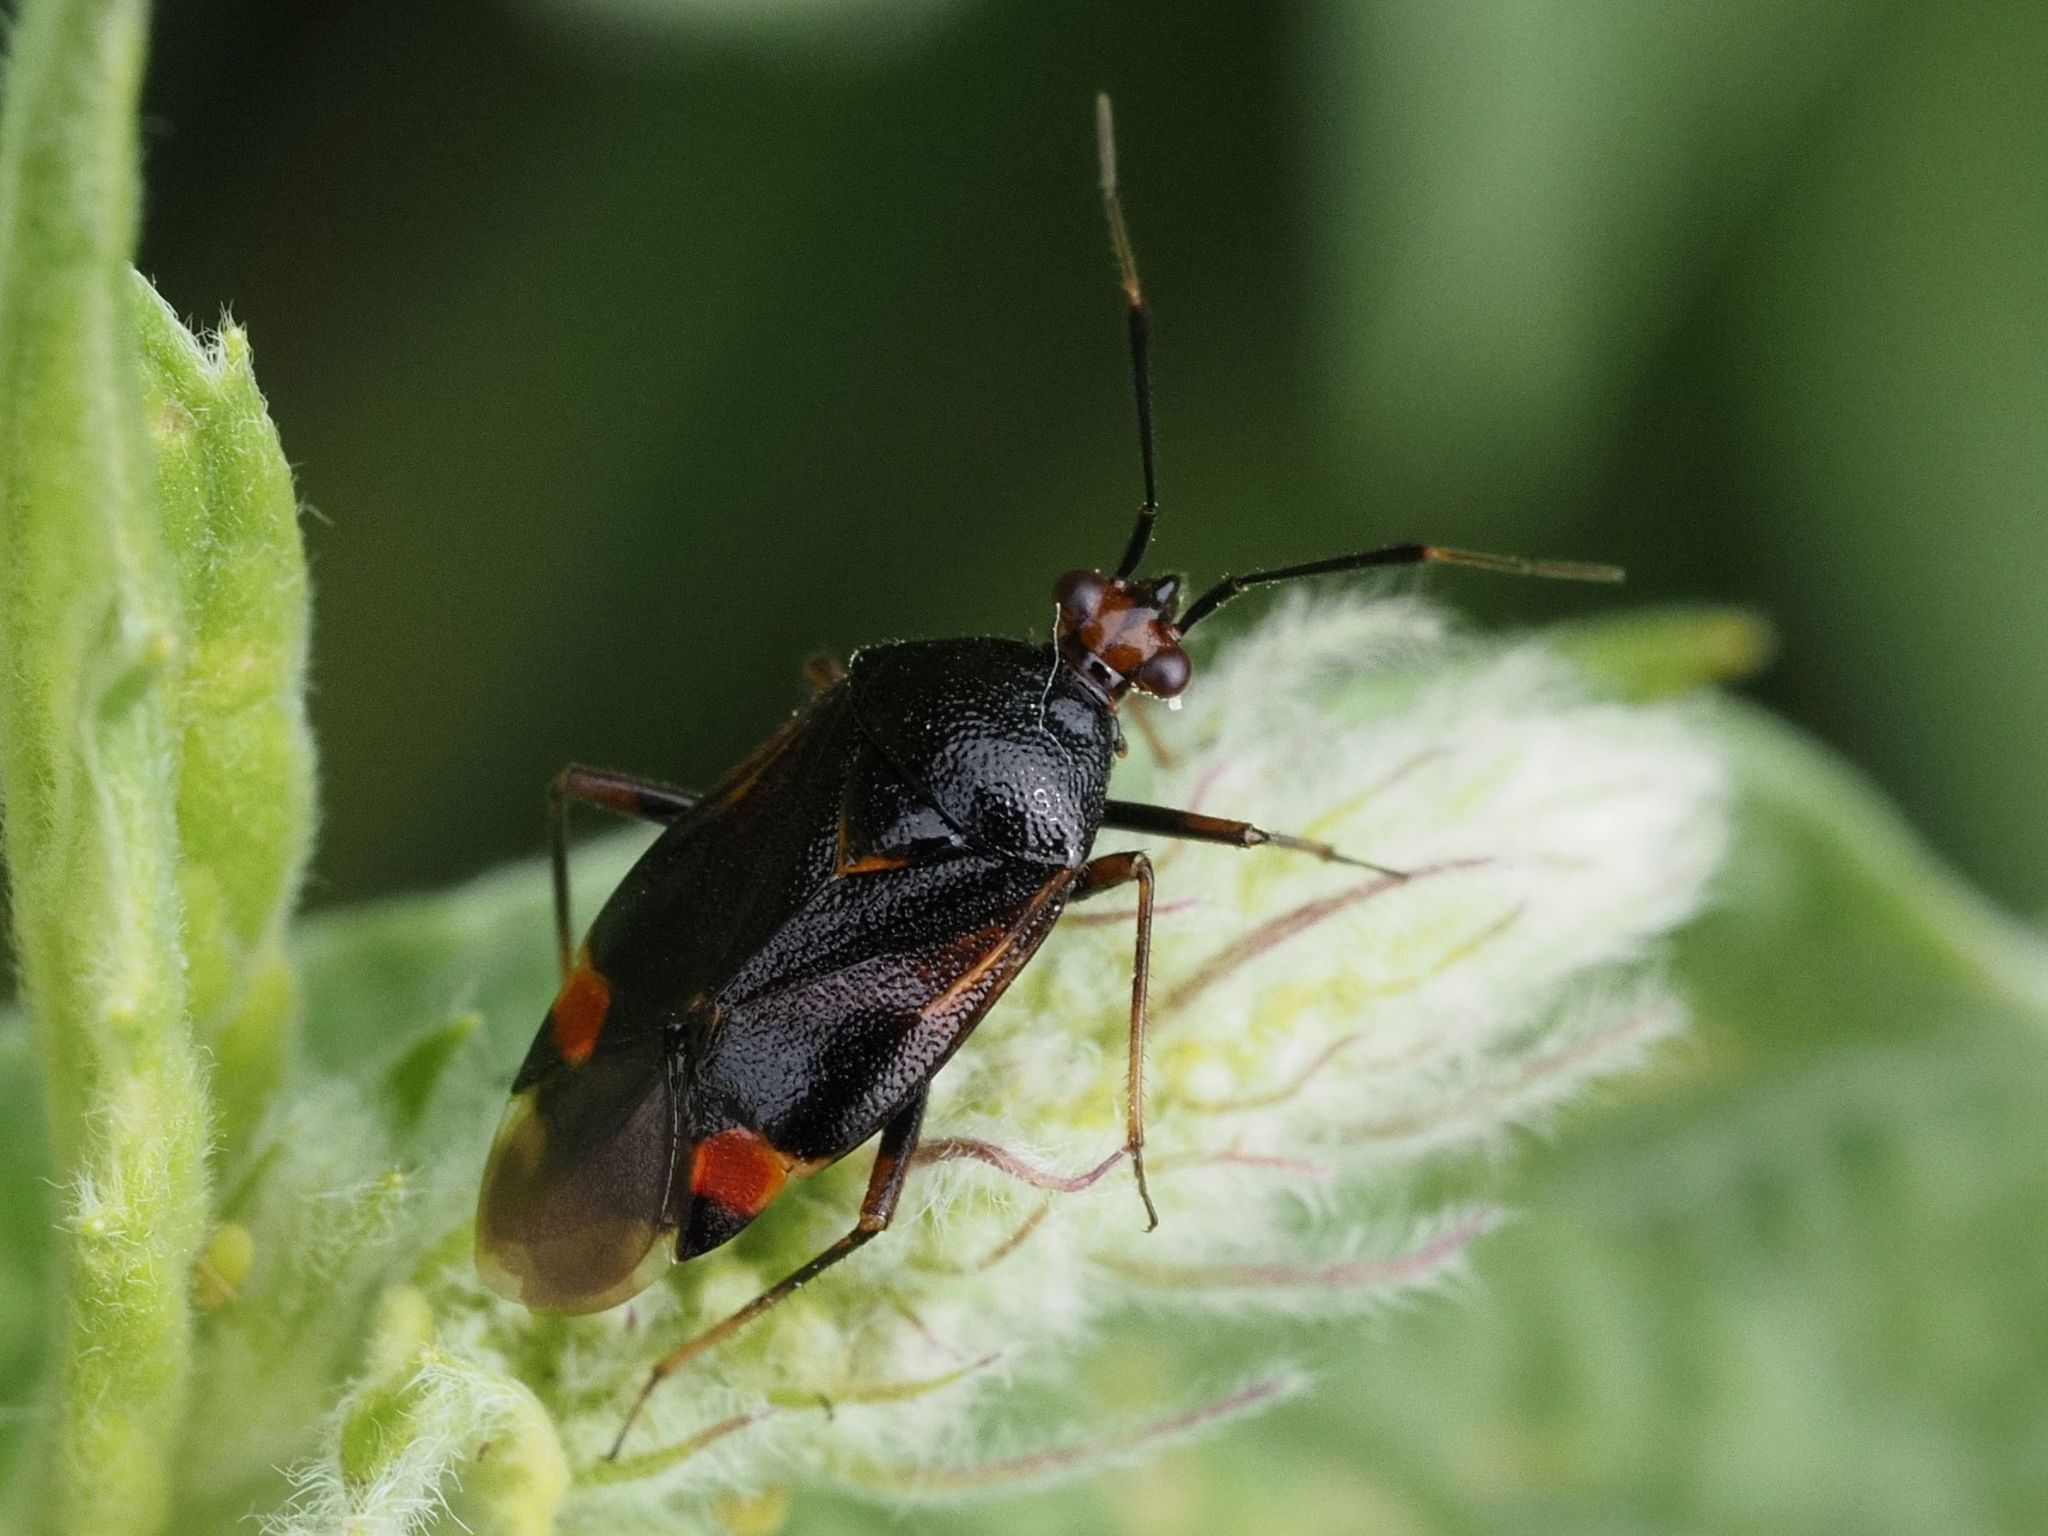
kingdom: Animalia
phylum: Arthropoda
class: Insecta
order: Hemiptera
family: Miridae
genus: Deraeocoris
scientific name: Deraeocoris ruber
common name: Plant bug
